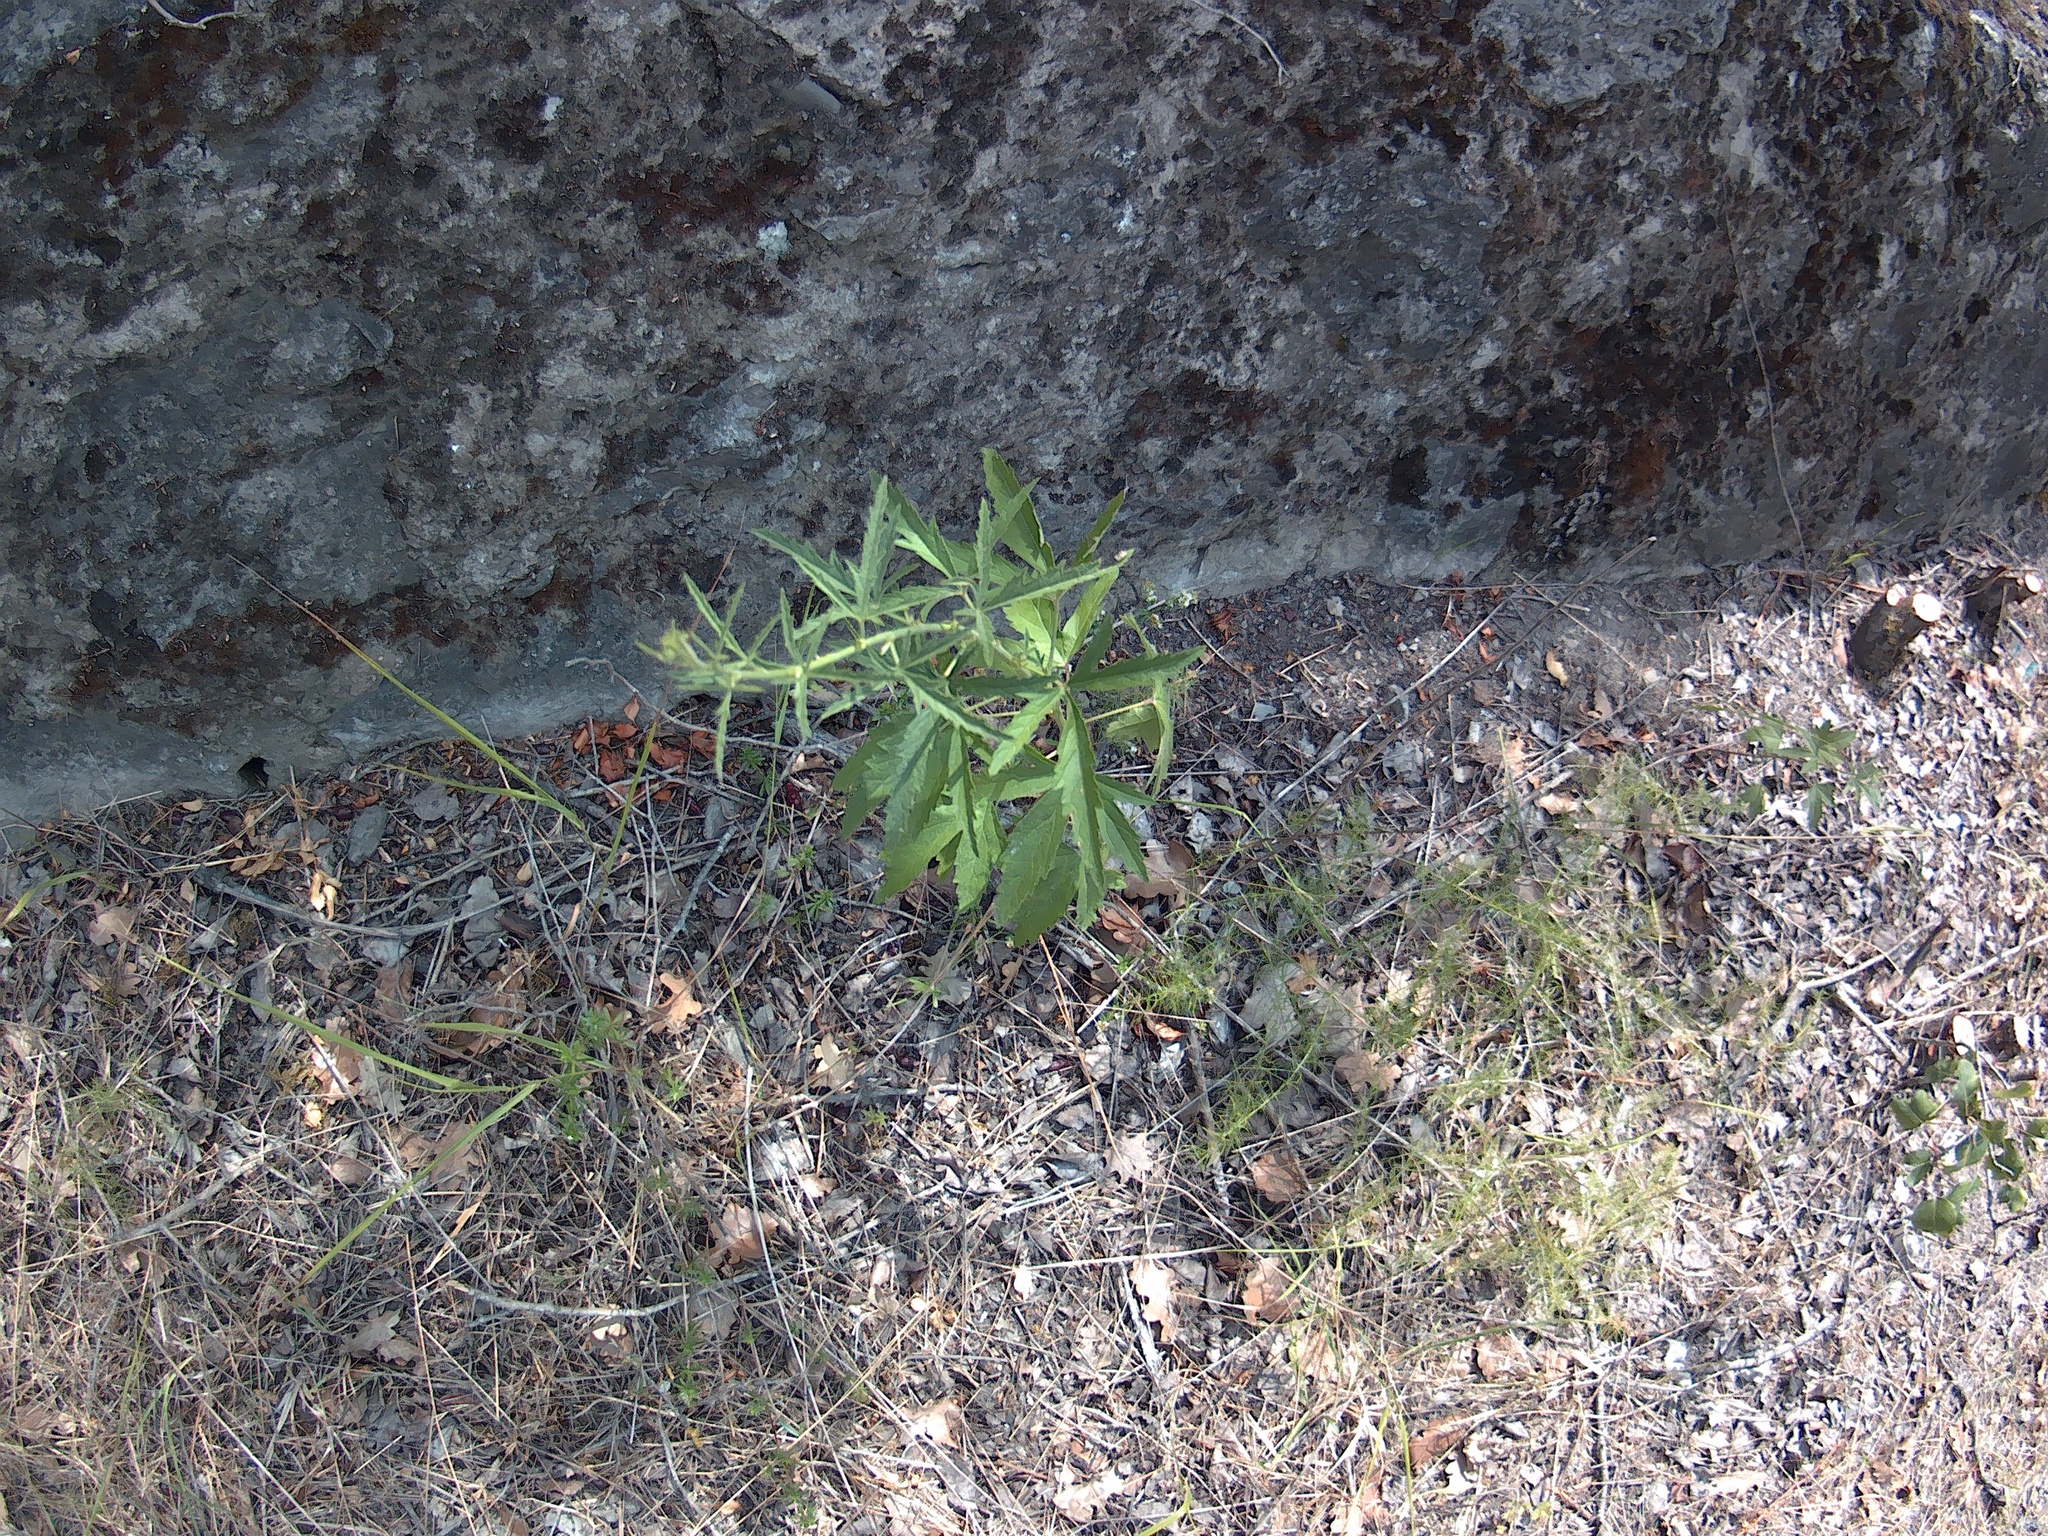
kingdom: Plantae
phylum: Tracheophyta
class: Magnoliopsida
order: Malvales
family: Malvaceae
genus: Althaea
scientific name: Althaea cannabina
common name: Palm-leaf marshmallow
